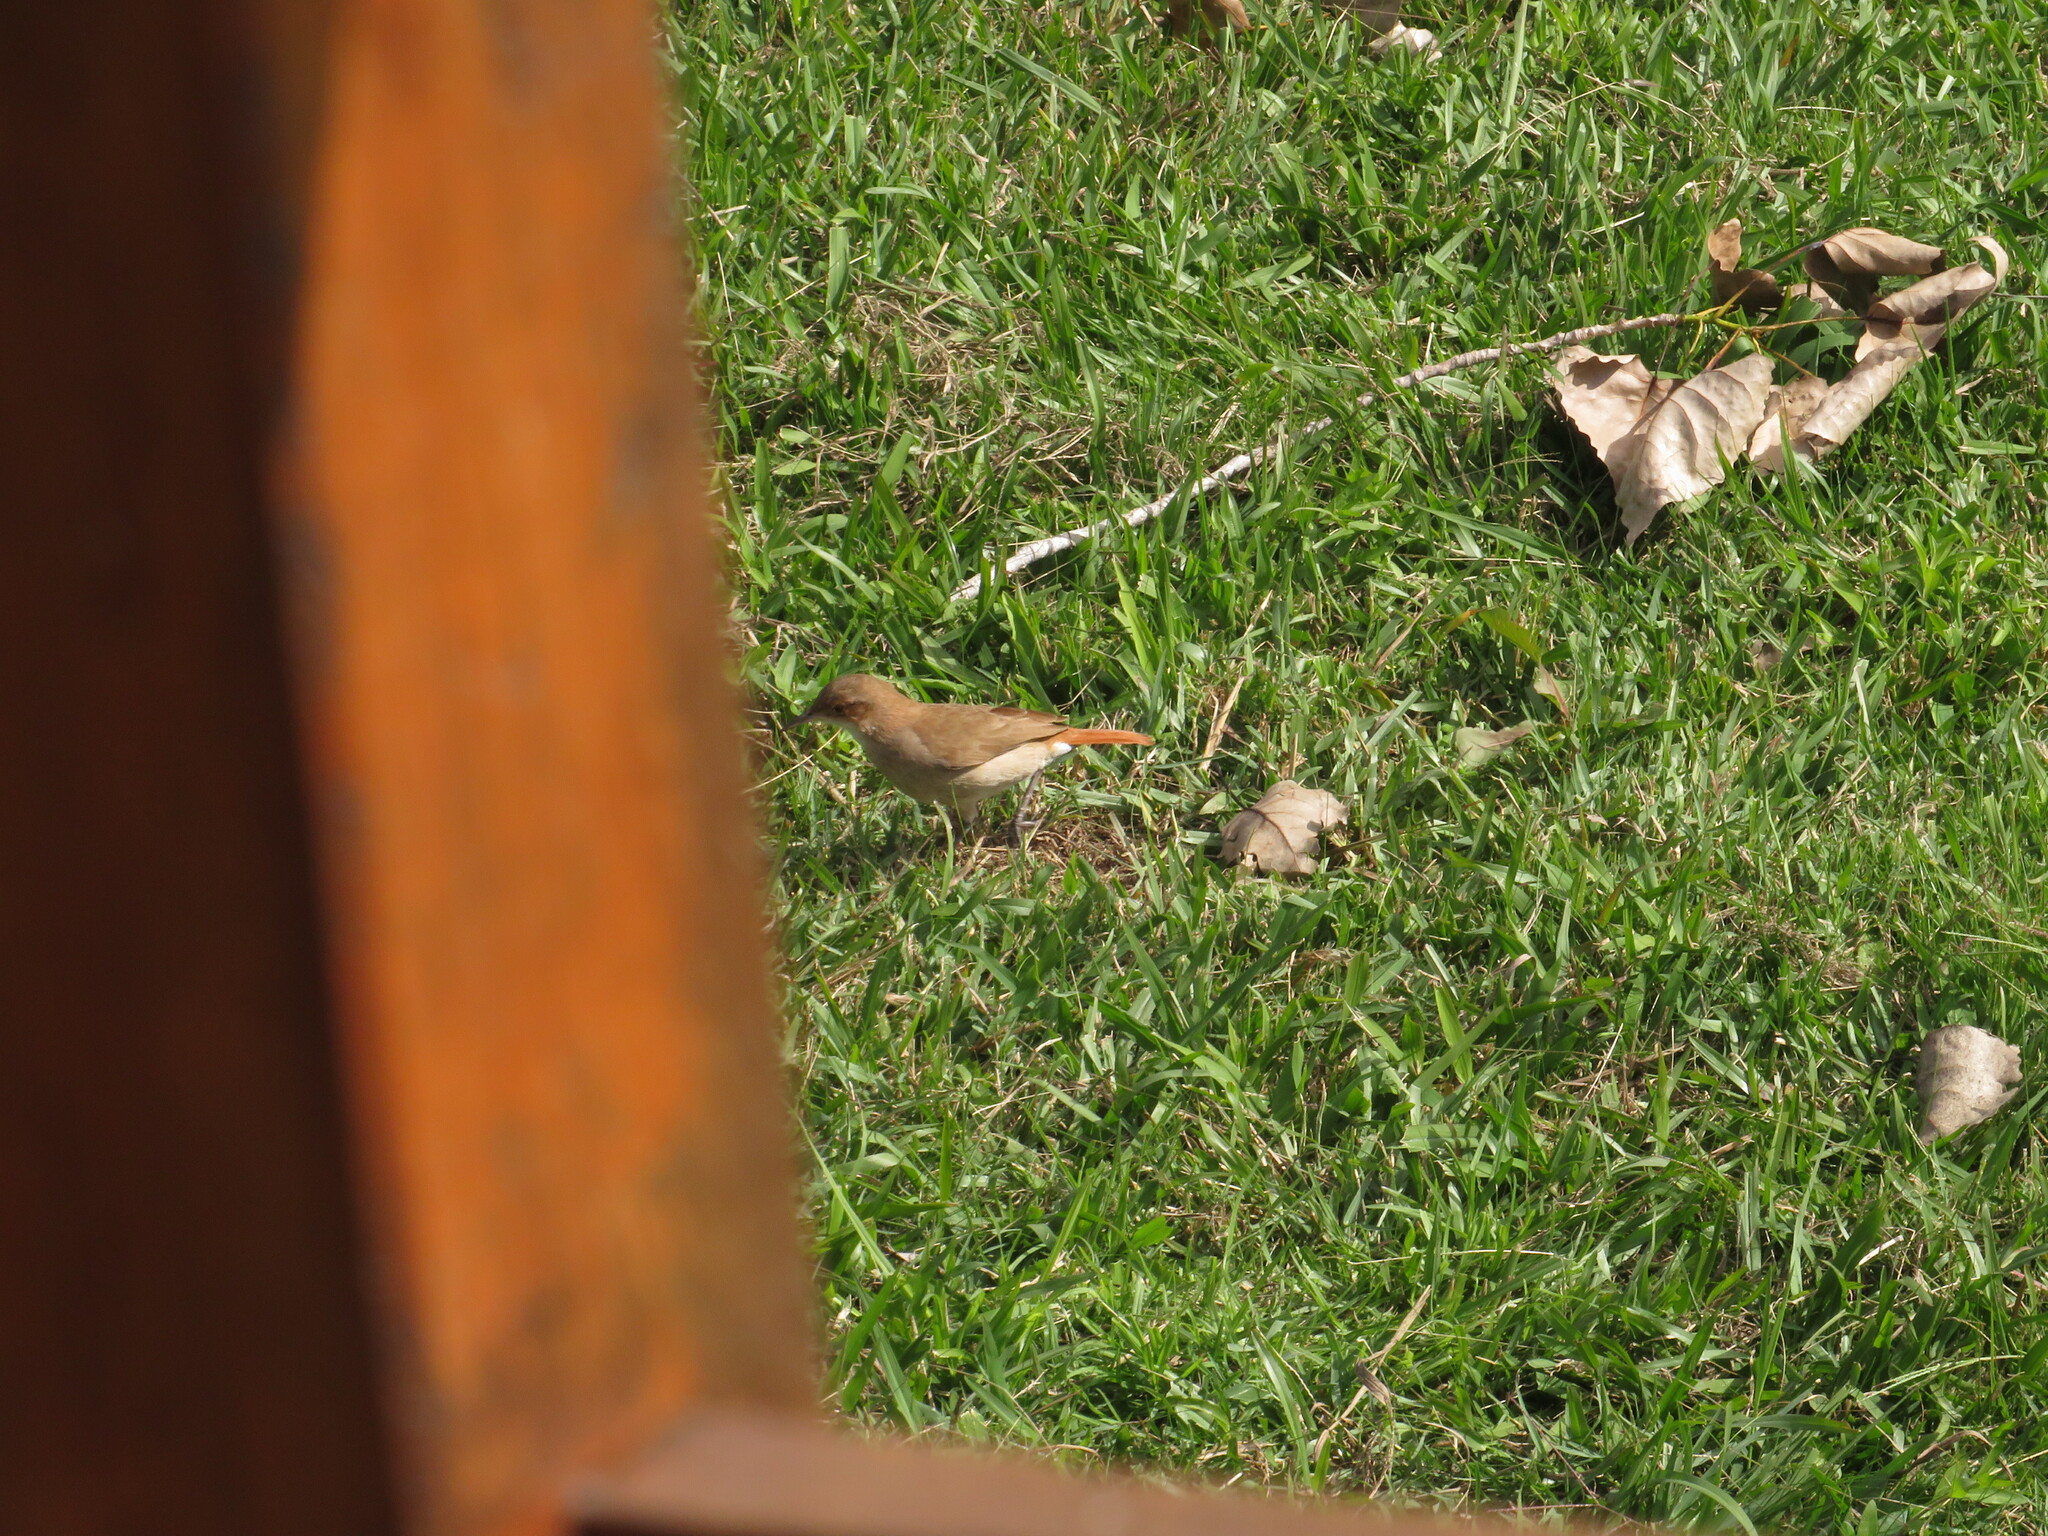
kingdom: Animalia
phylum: Chordata
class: Aves
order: Passeriformes
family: Furnariidae
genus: Furnarius
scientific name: Furnarius rufus
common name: Rufous hornero
